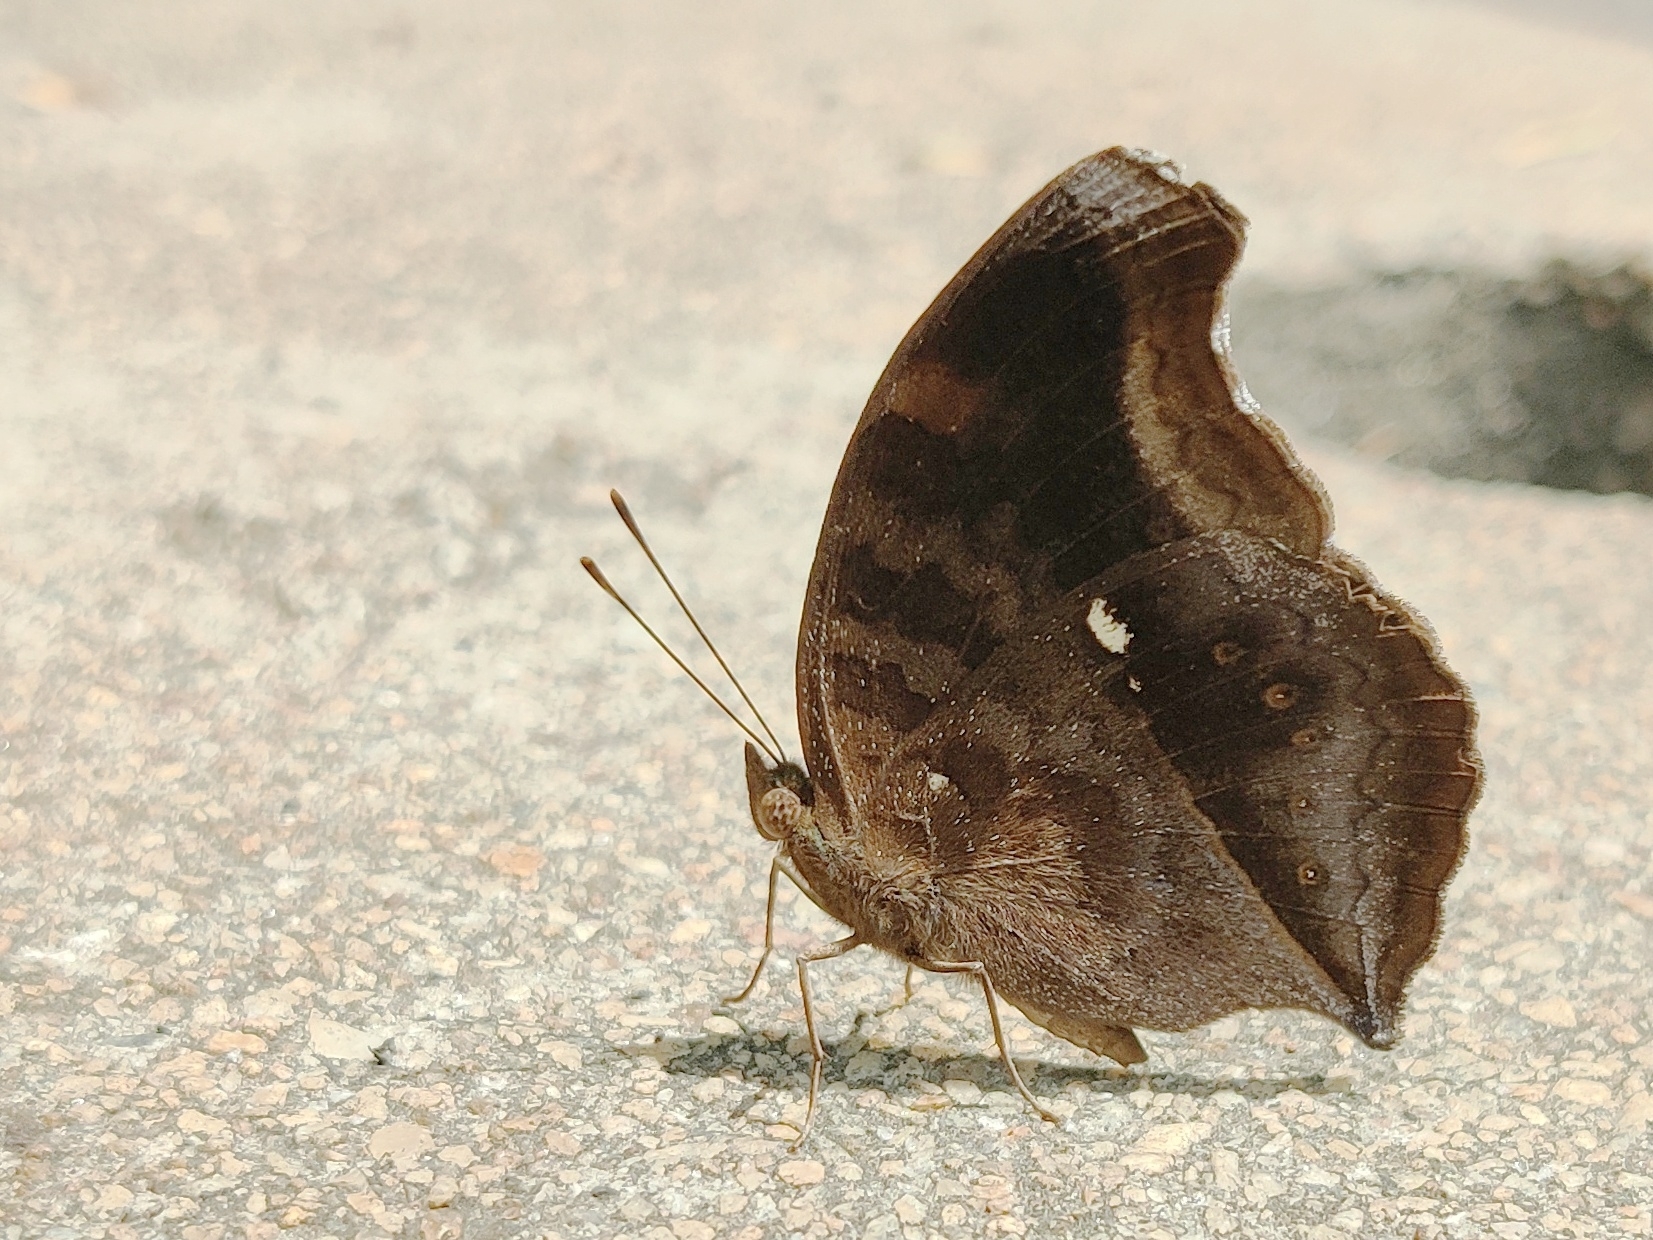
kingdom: Animalia
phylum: Arthropoda
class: Insecta
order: Lepidoptera
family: Nymphalidae
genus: Junonia
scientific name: Junonia iphita
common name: Chocolate pansy
